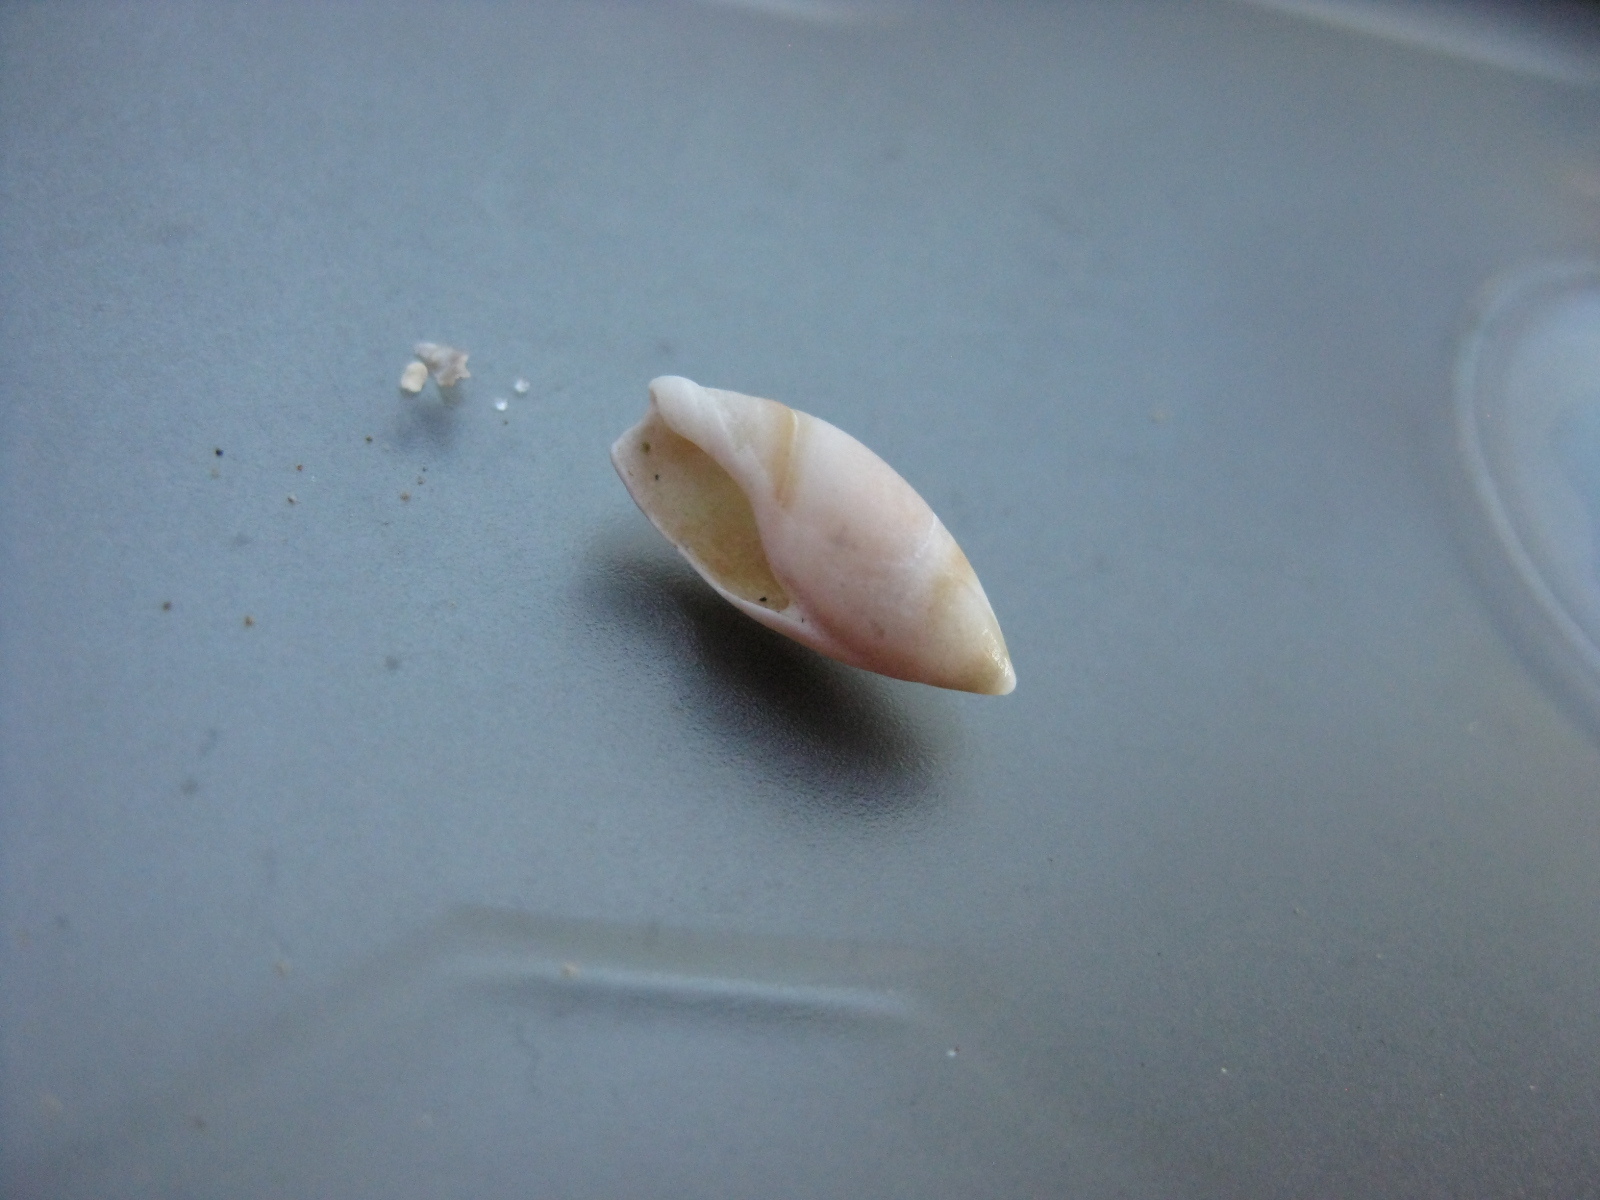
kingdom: Animalia
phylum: Mollusca
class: Gastropoda
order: Neogastropoda
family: Ancillariidae
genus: Amalda
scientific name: Amalda novaezelandiae
